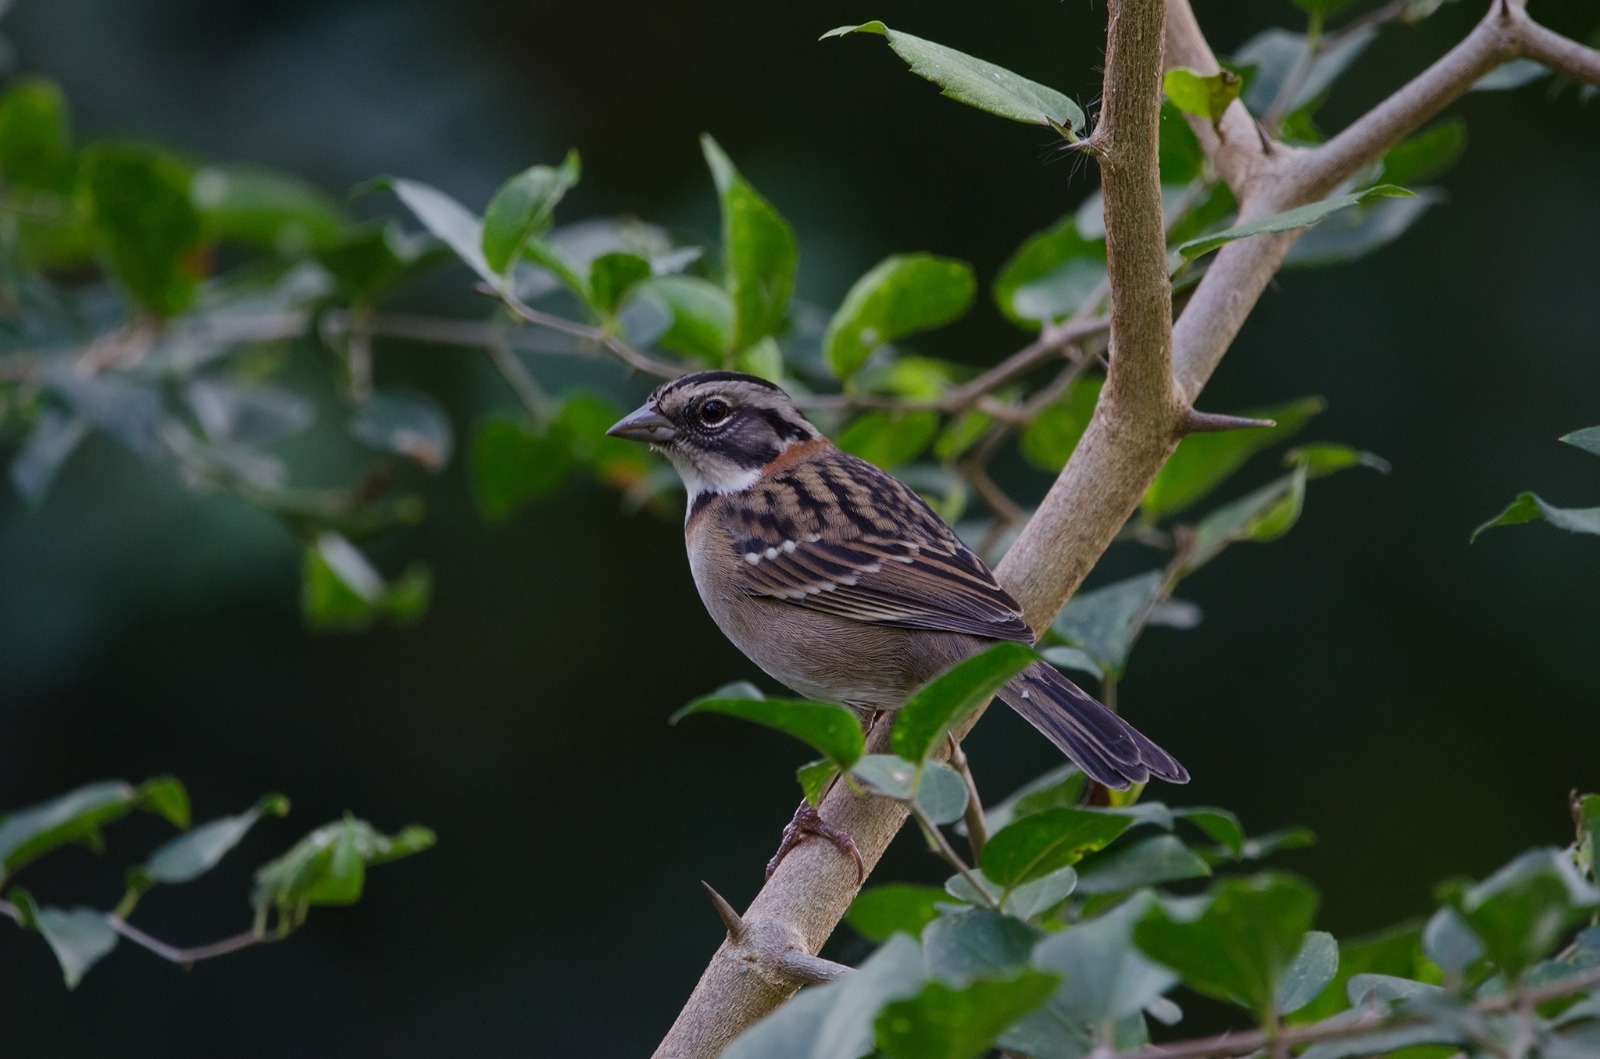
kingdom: Animalia
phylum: Chordata
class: Aves
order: Passeriformes
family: Passerellidae
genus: Zonotrichia
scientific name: Zonotrichia capensis
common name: Rufous-collared sparrow
